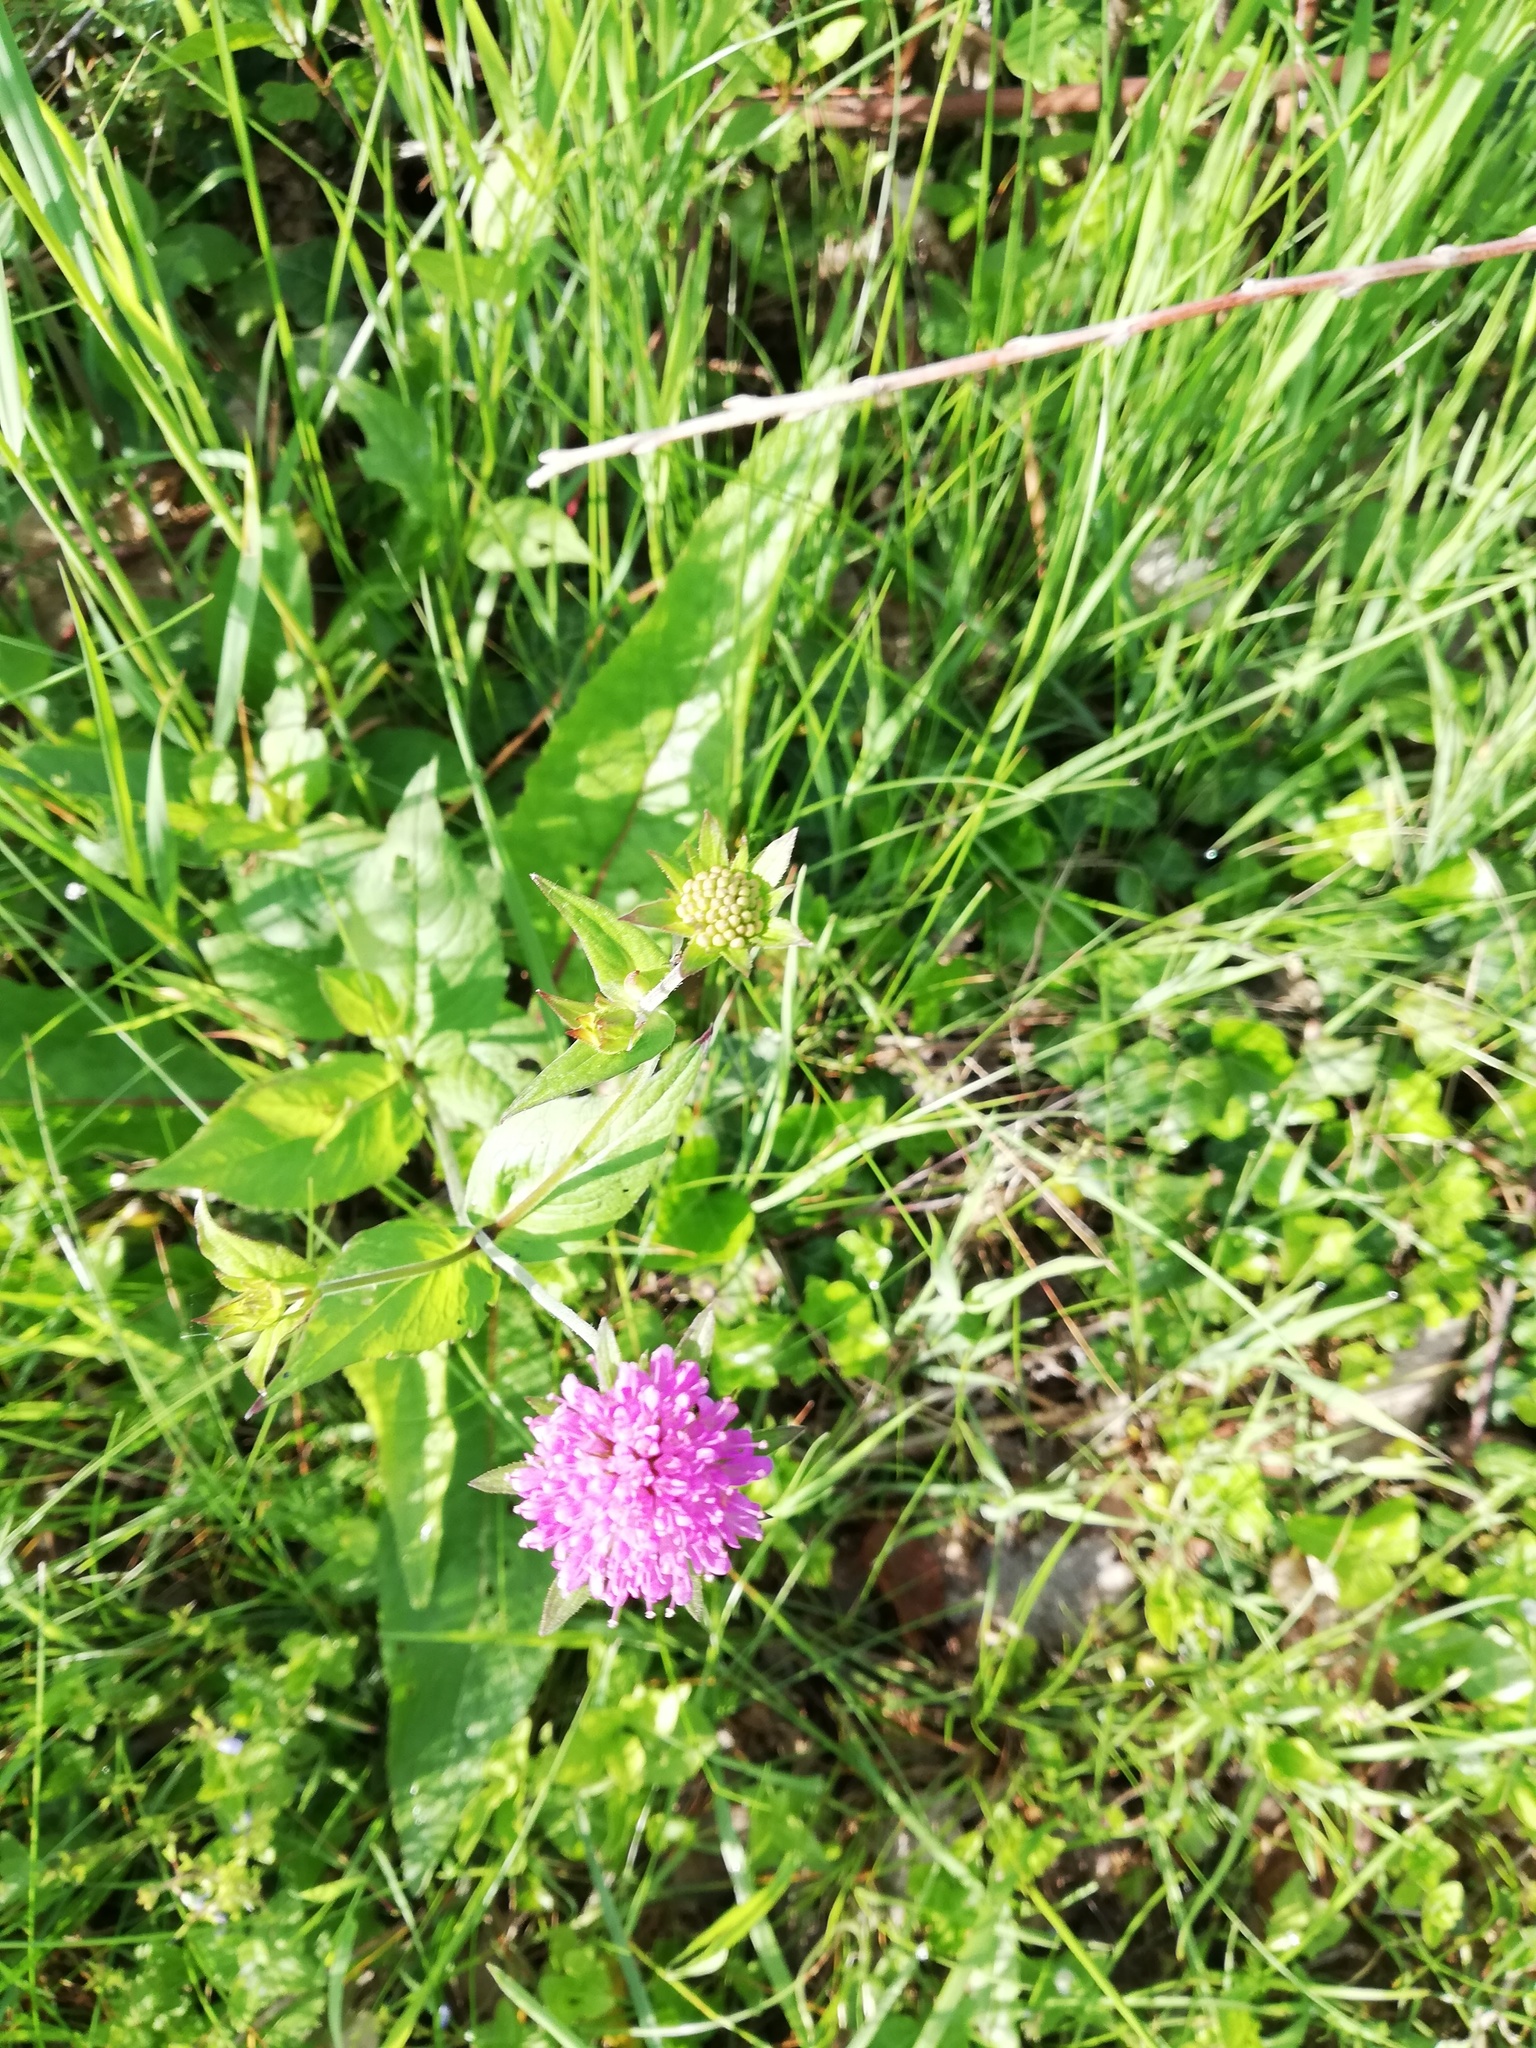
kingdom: Plantae
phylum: Tracheophyta
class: Magnoliopsida
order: Dipsacales
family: Caprifoliaceae
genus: Knautia
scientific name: Knautia dipsacifolia
